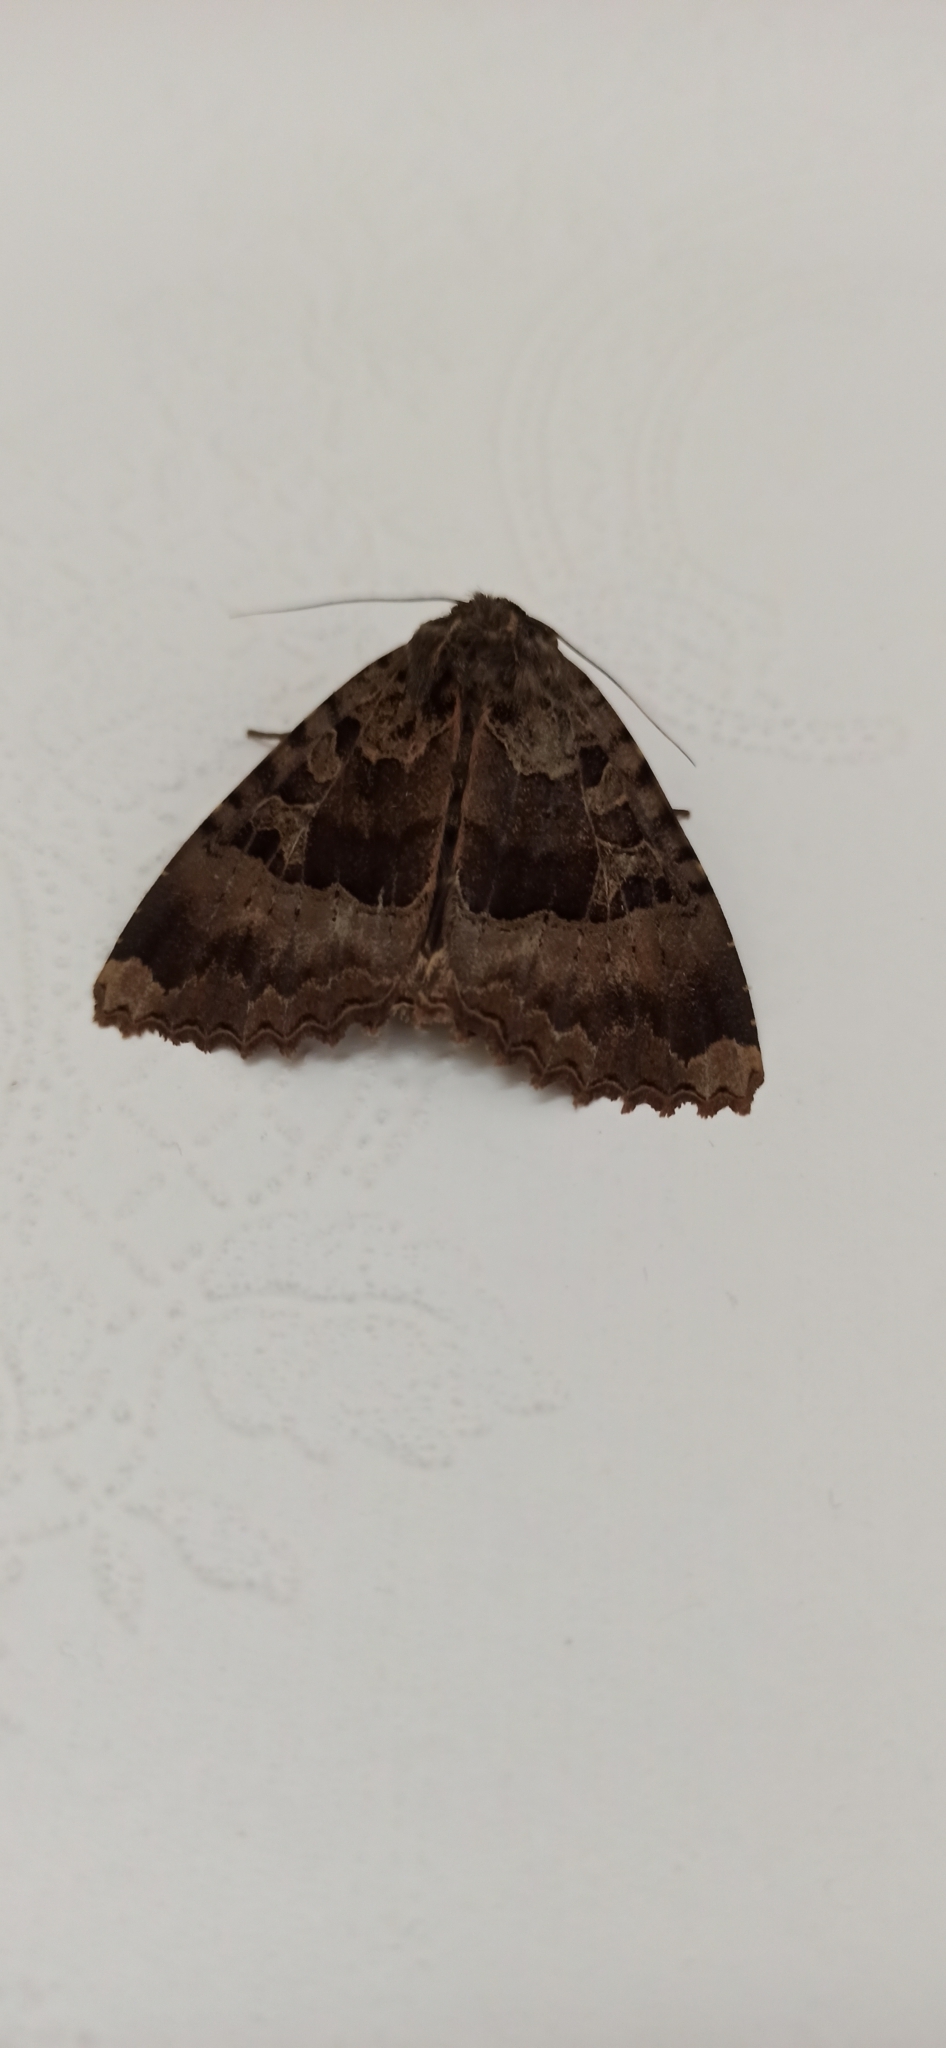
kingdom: Animalia
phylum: Arthropoda
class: Insecta
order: Lepidoptera
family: Noctuidae
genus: Mormo
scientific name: Mormo maura
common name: Old lady
